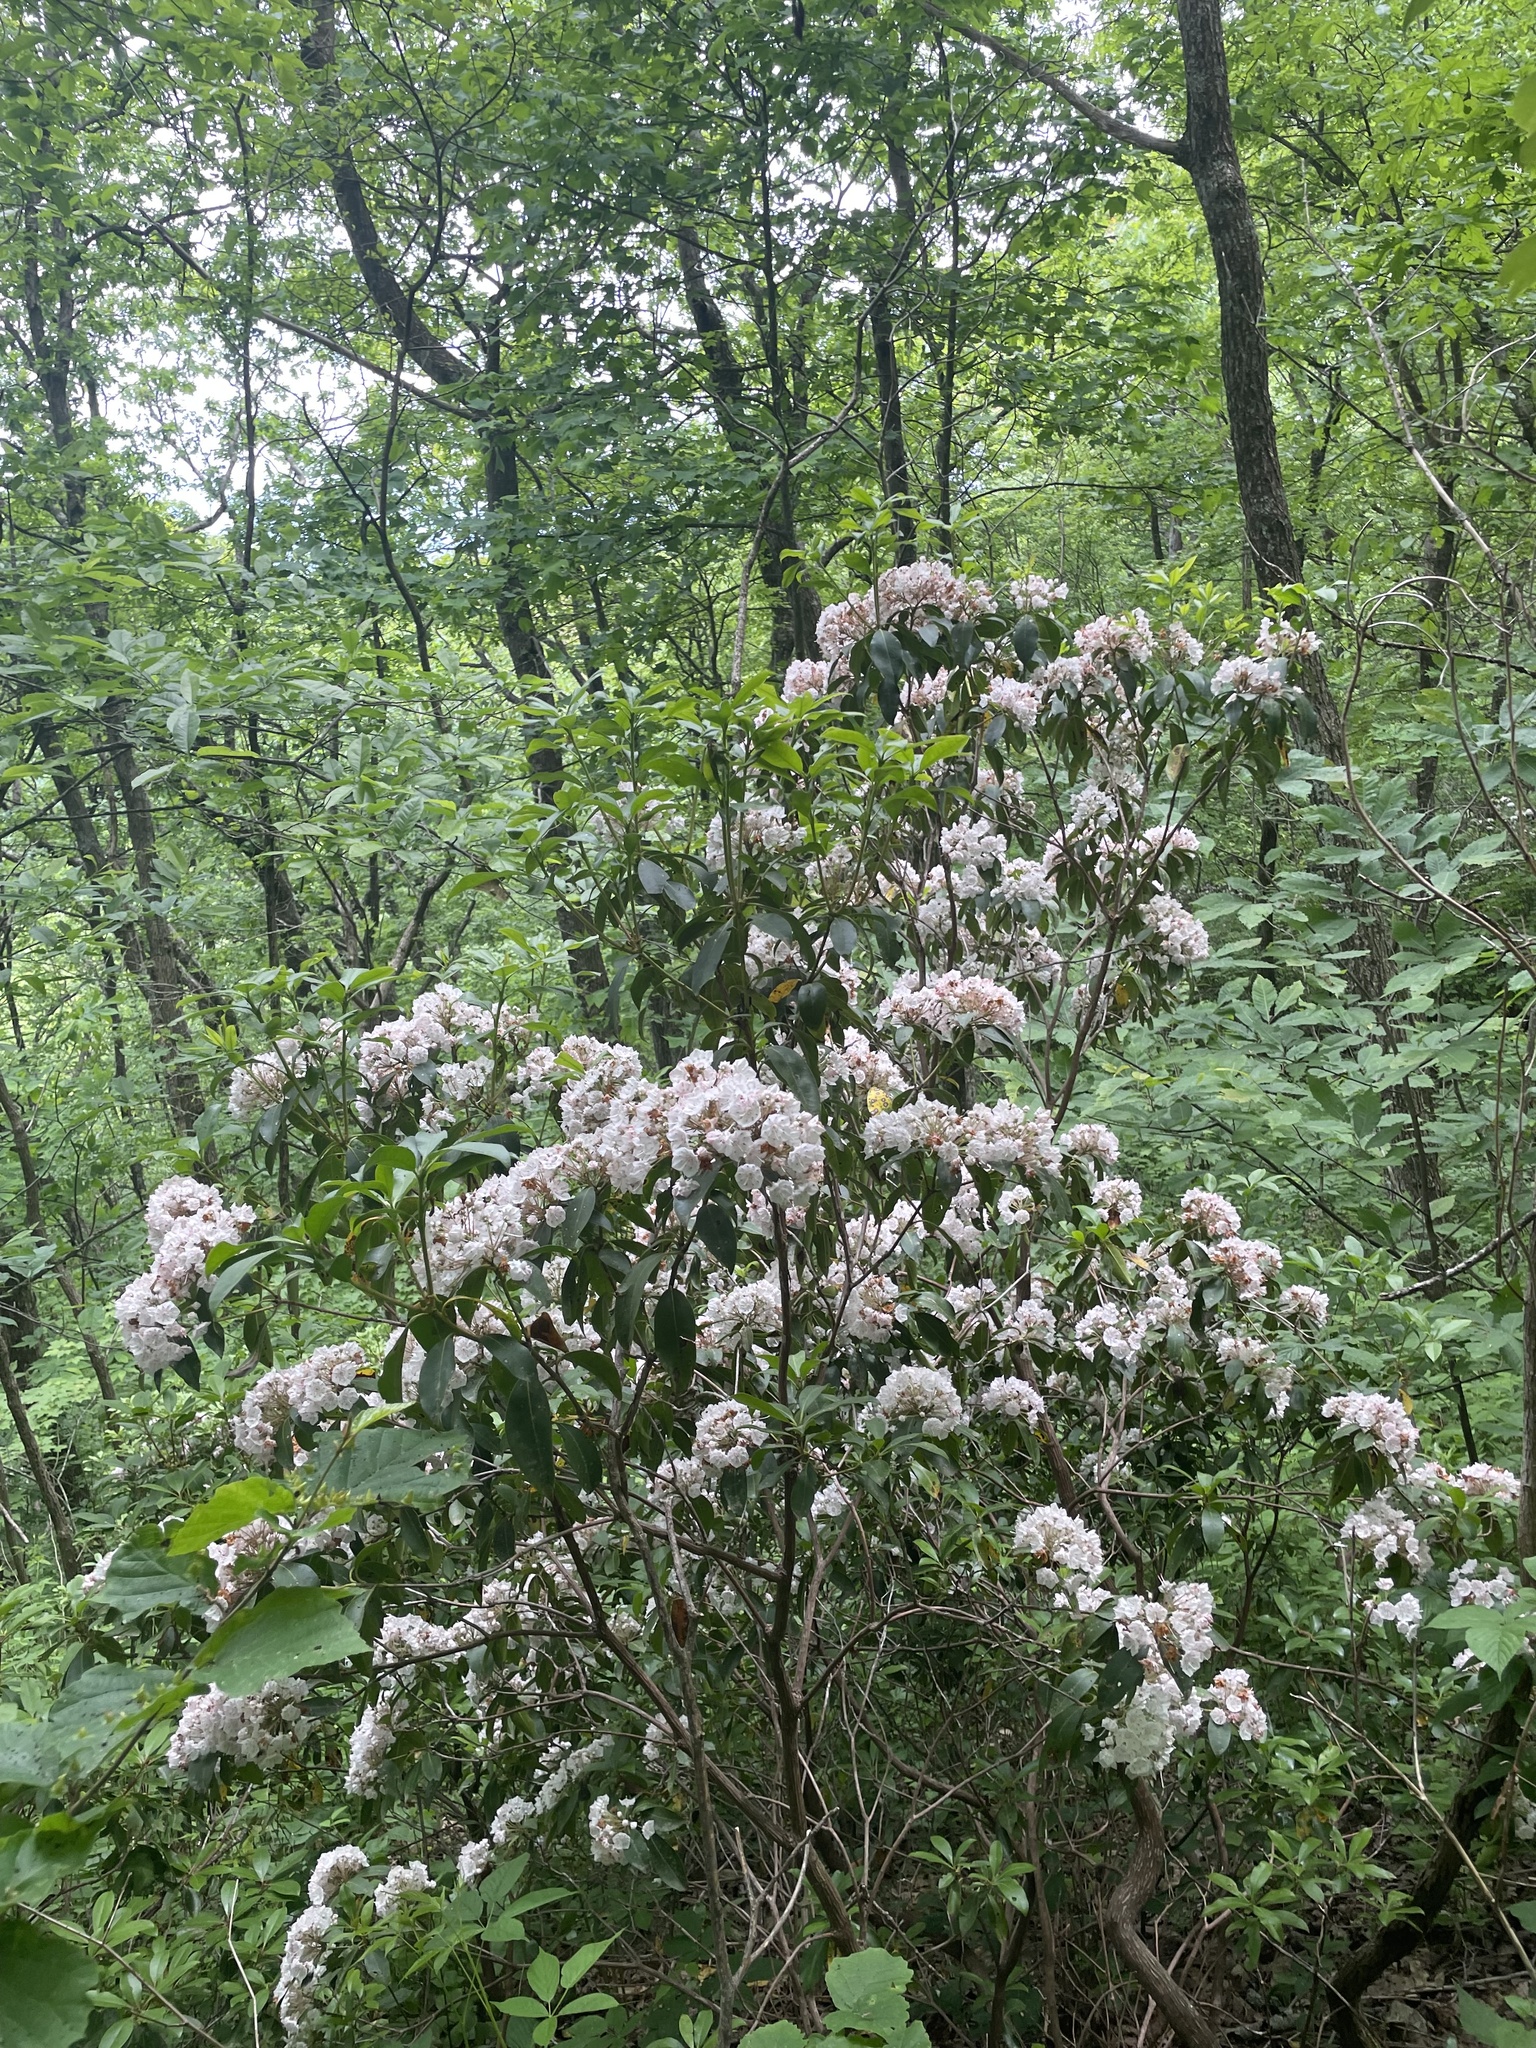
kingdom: Plantae
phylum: Tracheophyta
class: Magnoliopsida
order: Ericales
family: Ericaceae
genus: Kalmia
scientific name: Kalmia latifolia
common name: Mountain-laurel
